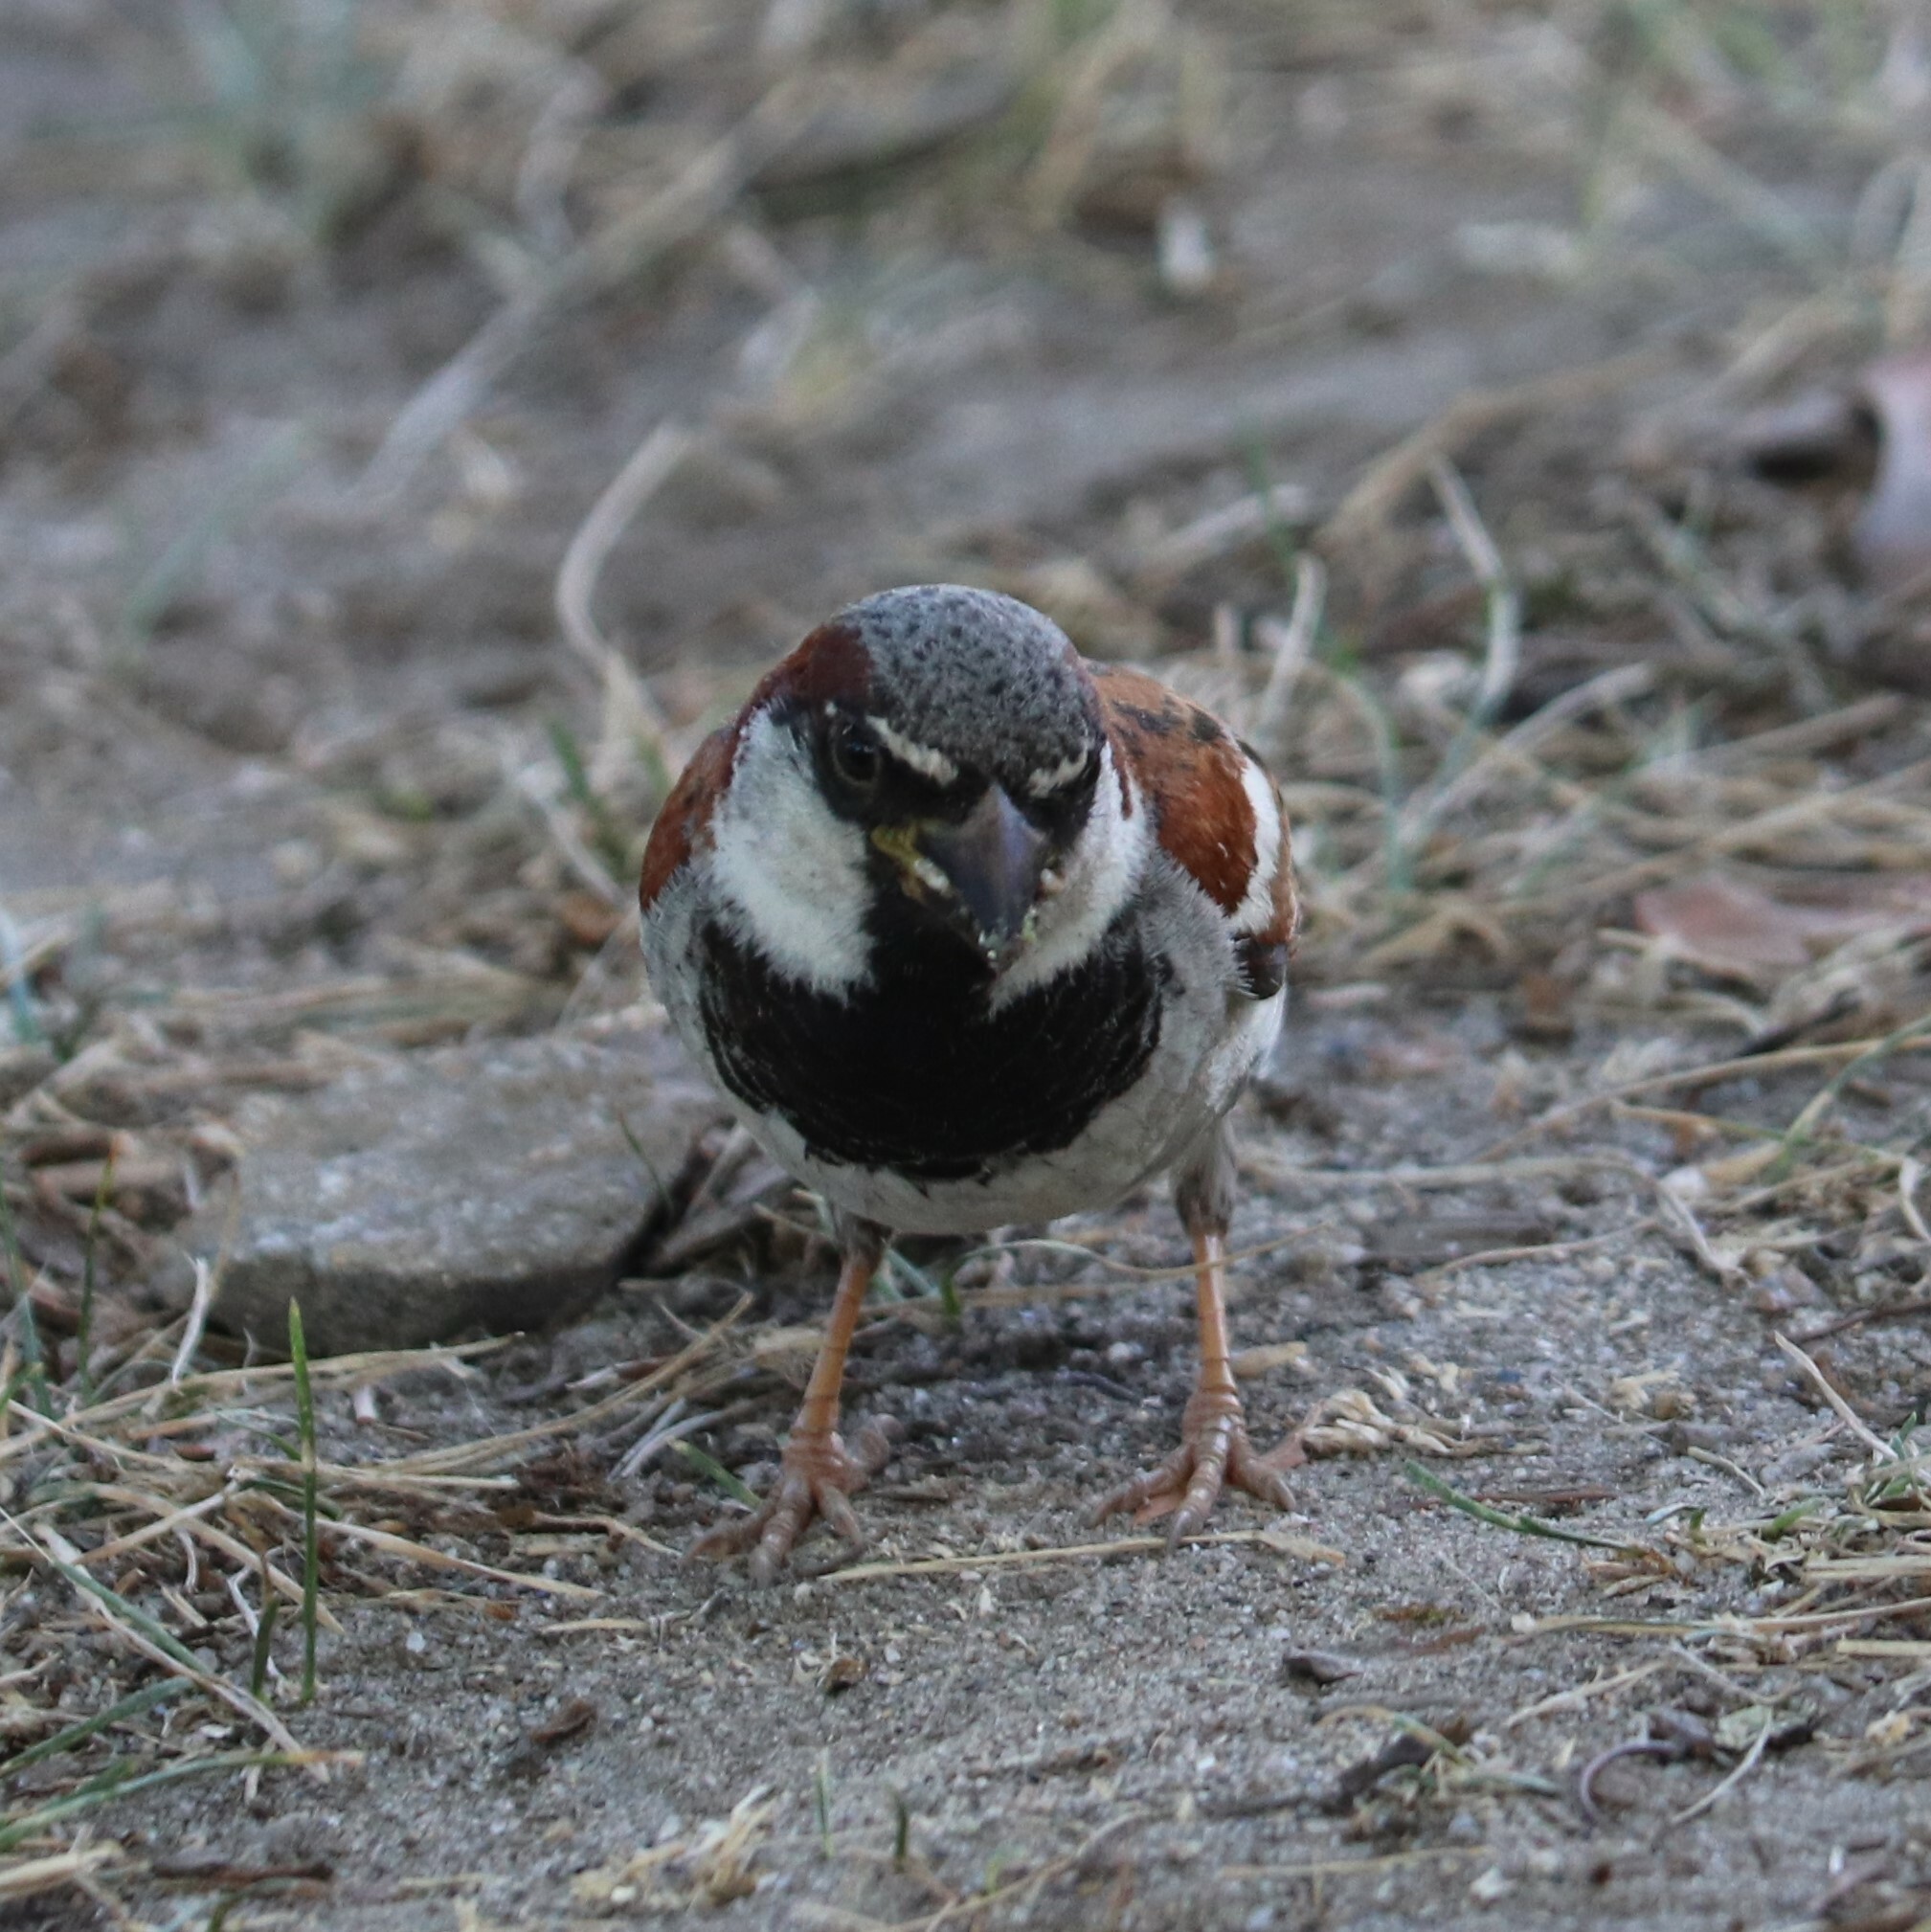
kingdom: Animalia
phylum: Chordata
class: Aves
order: Passeriformes
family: Passeridae
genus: Passer
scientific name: Passer domesticus
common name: House sparrow
